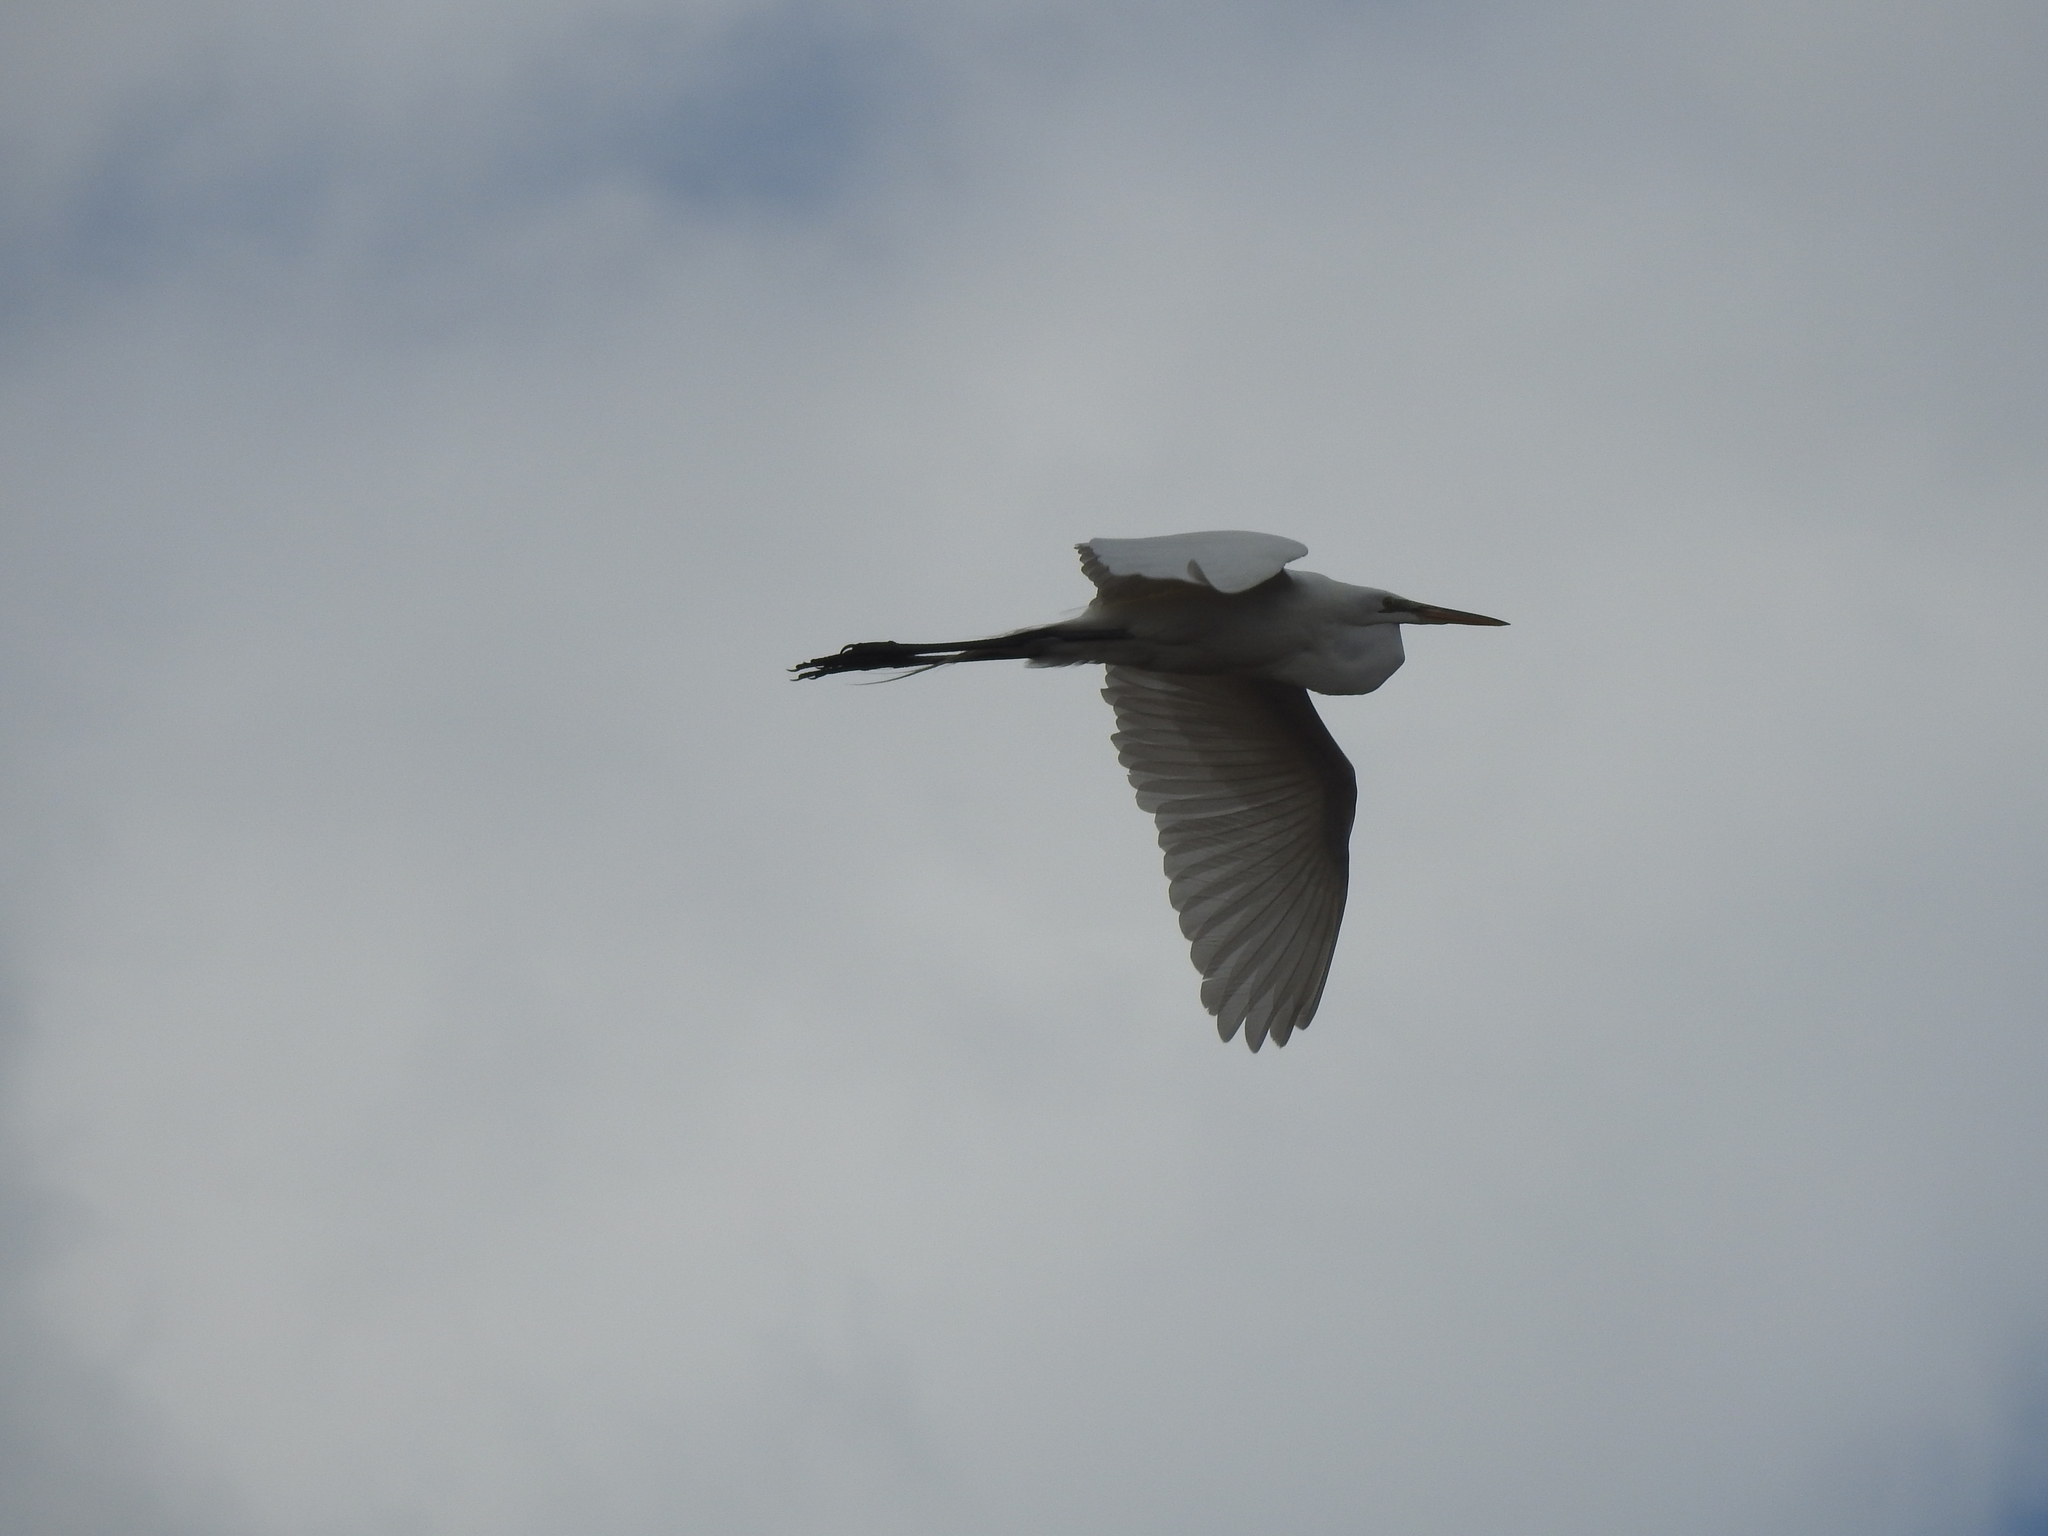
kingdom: Animalia
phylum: Chordata
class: Aves
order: Pelecaniformes
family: Ardeidae
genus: Ardea
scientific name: Ardea alba
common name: Great egret
